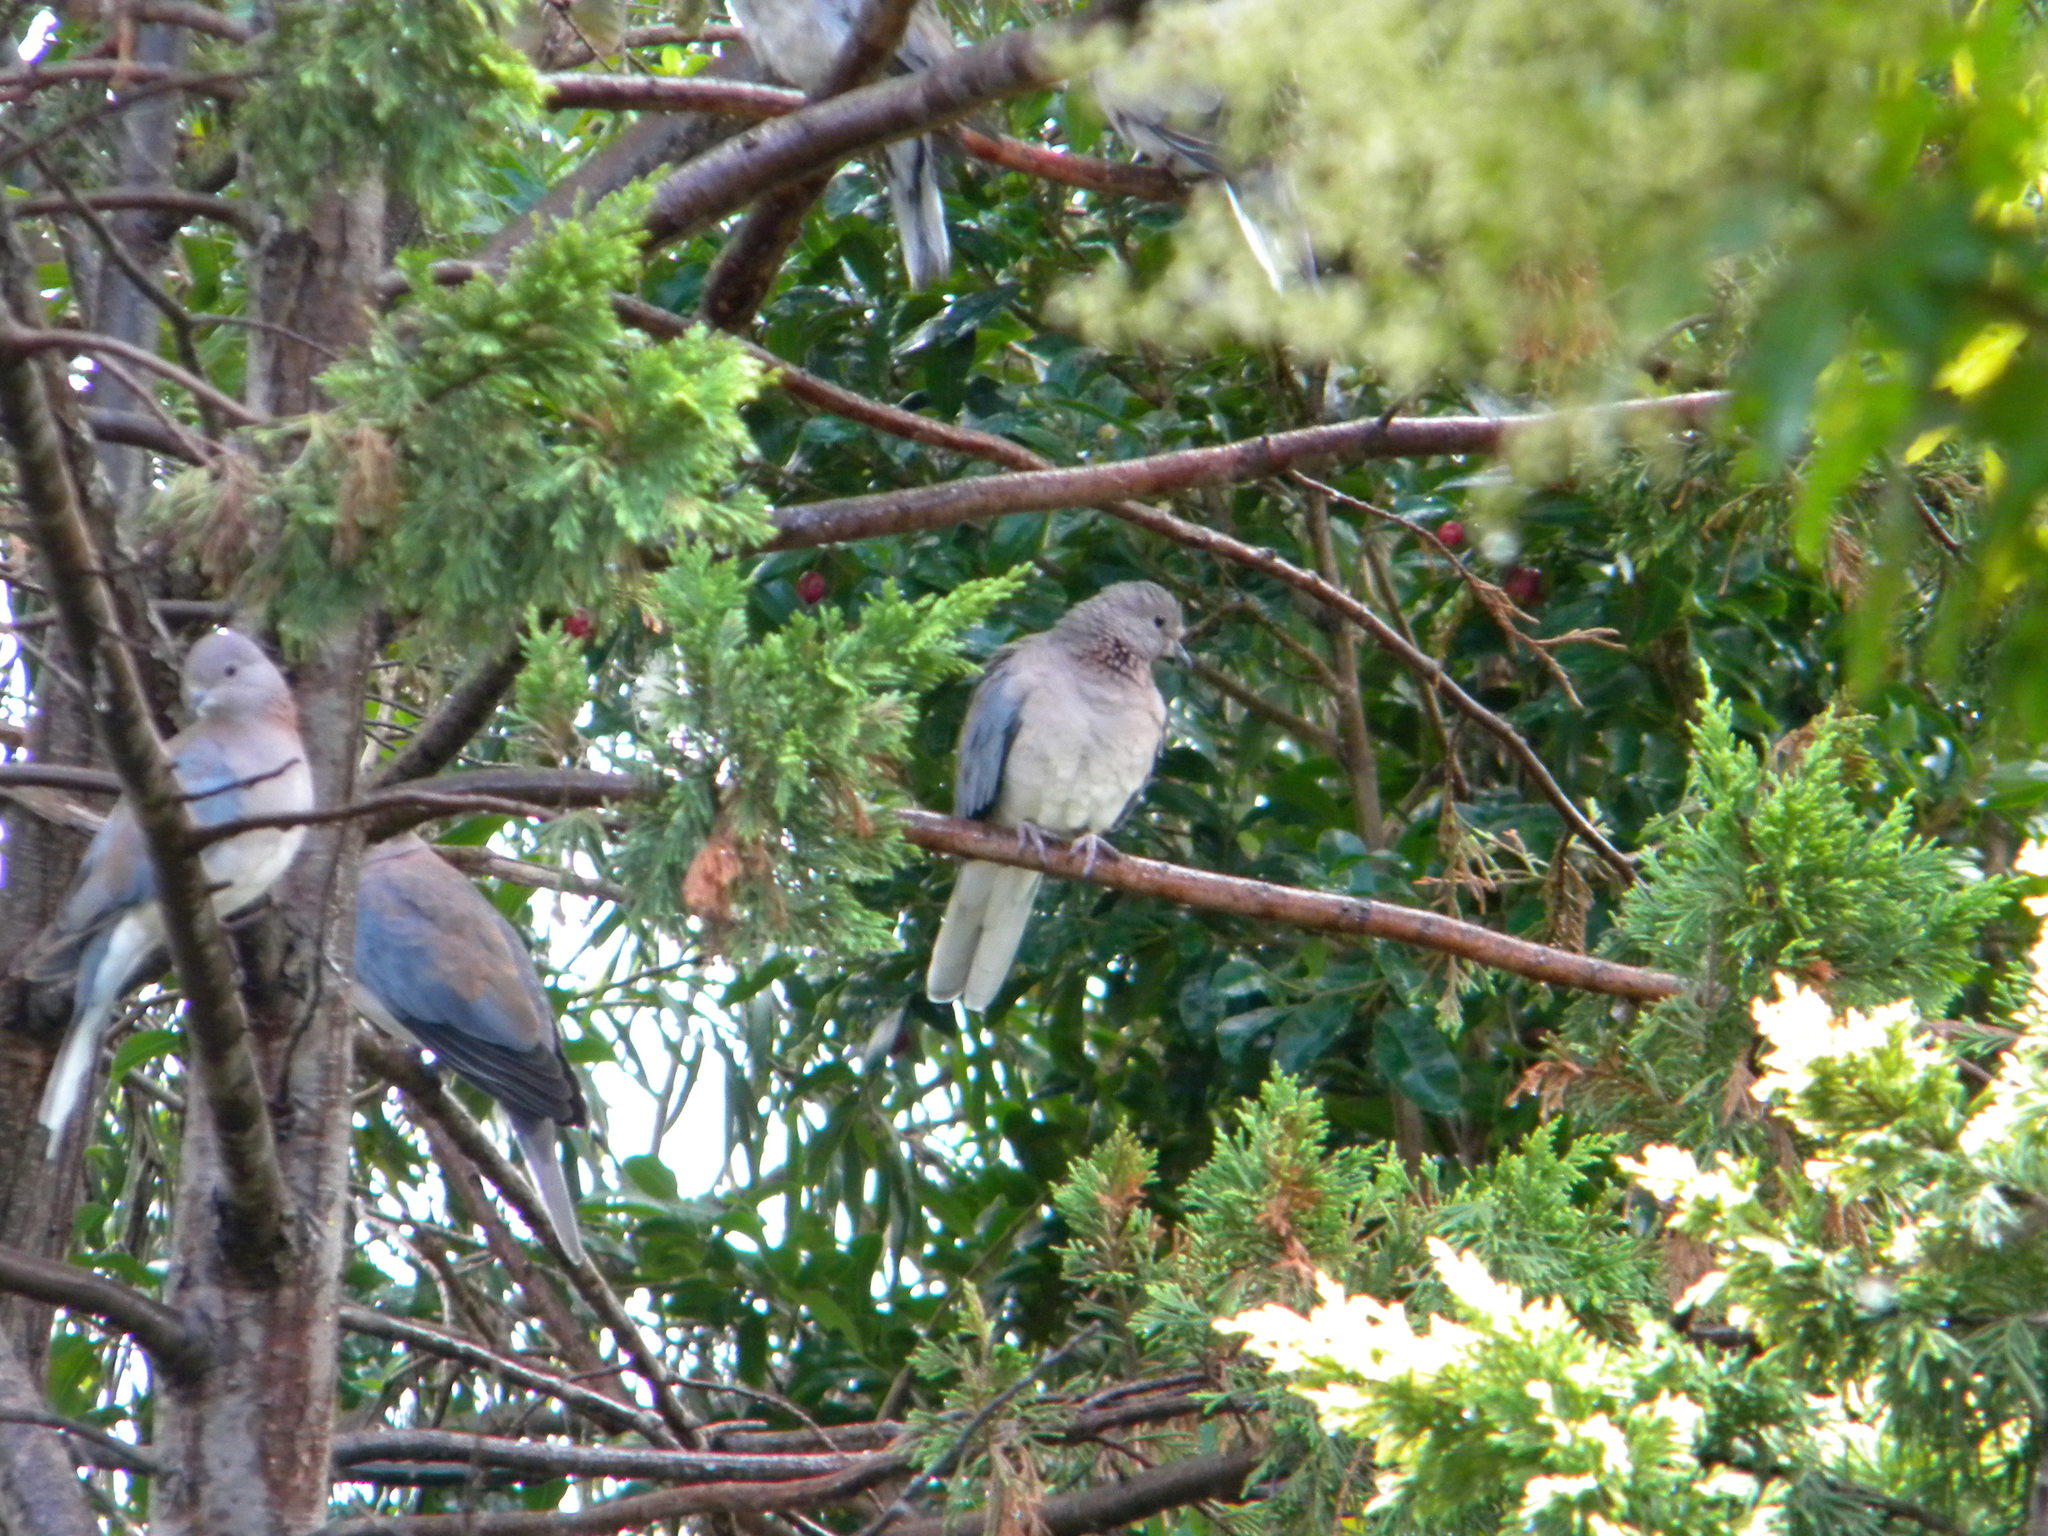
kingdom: Animalia
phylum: Chordata
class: Aves
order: Columbiformes
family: Columbidae
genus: Spilopelia
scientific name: Spilopelia senegalensis
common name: Laughing dove
